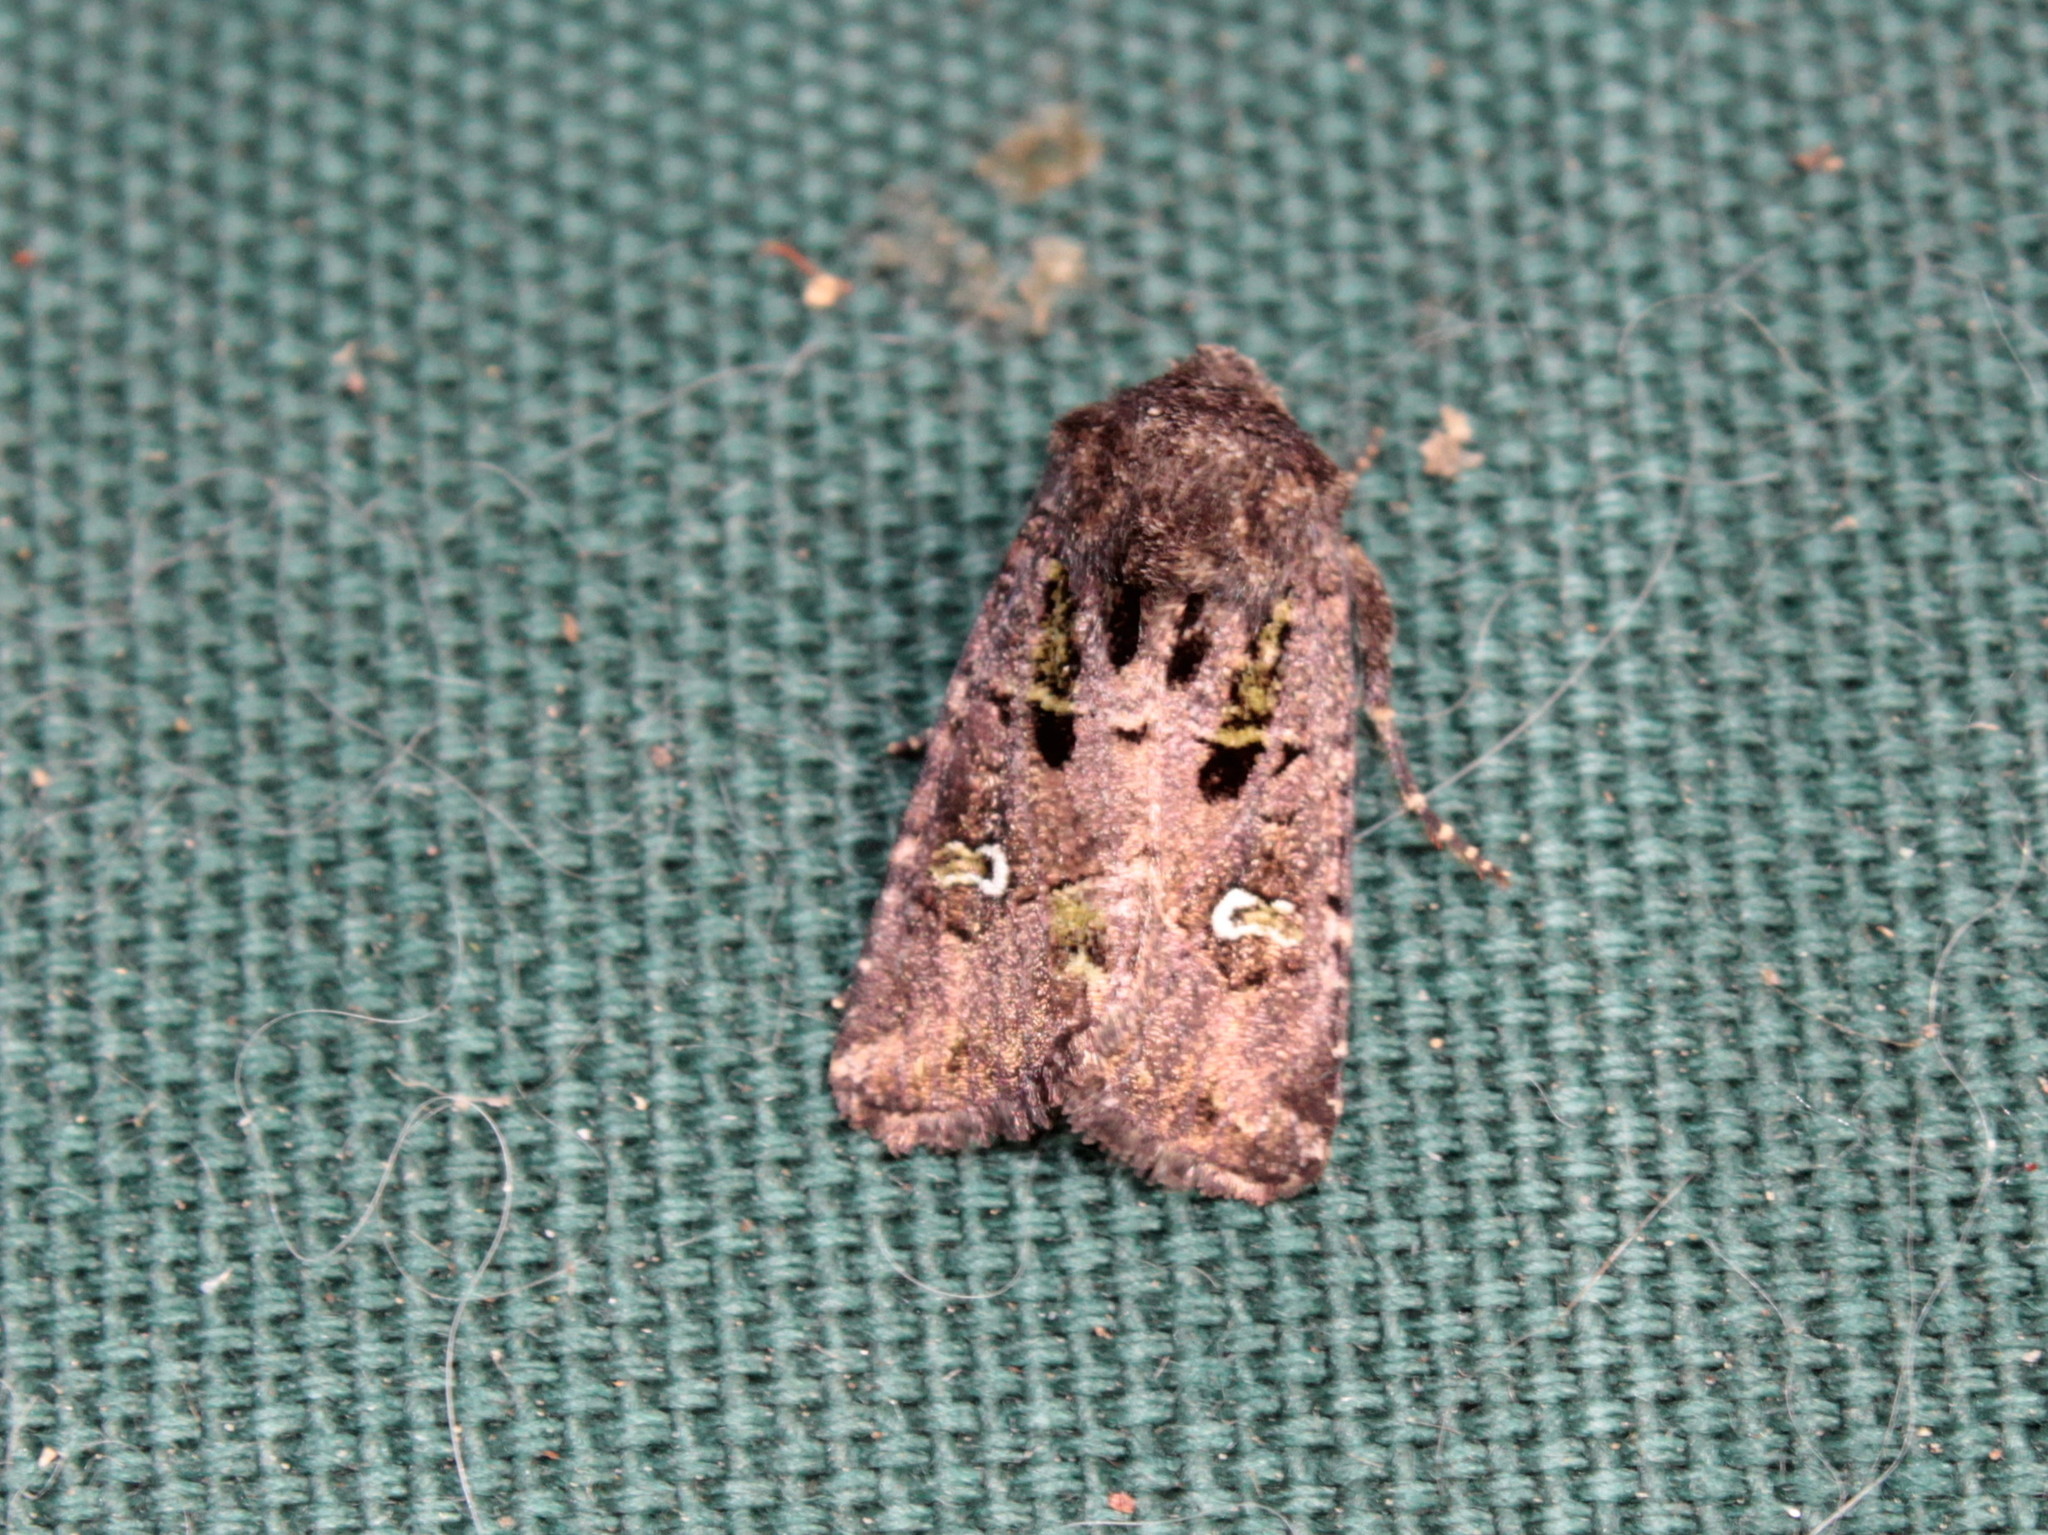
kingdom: Animalia
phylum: Arthropoda
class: Insecta
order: Lepidoptera
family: Noctuidae
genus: Lacinipolia
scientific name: Lacinipolia renigera
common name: Kidney-spotted minor
